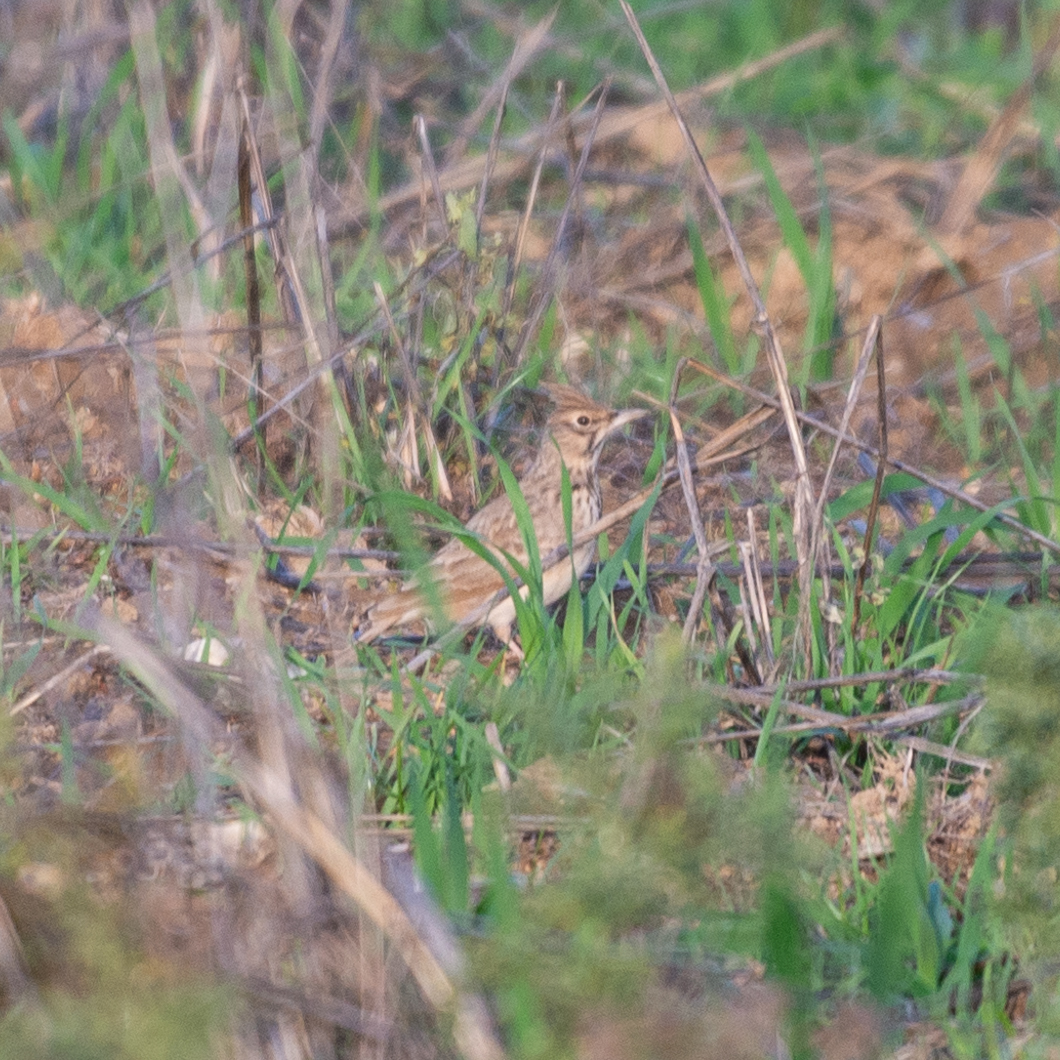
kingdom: Animalia
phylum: Chordata
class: Aves
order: Passeriformes
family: Alaudidae
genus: Galerida
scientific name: Galerida cristata
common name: Crested lark
